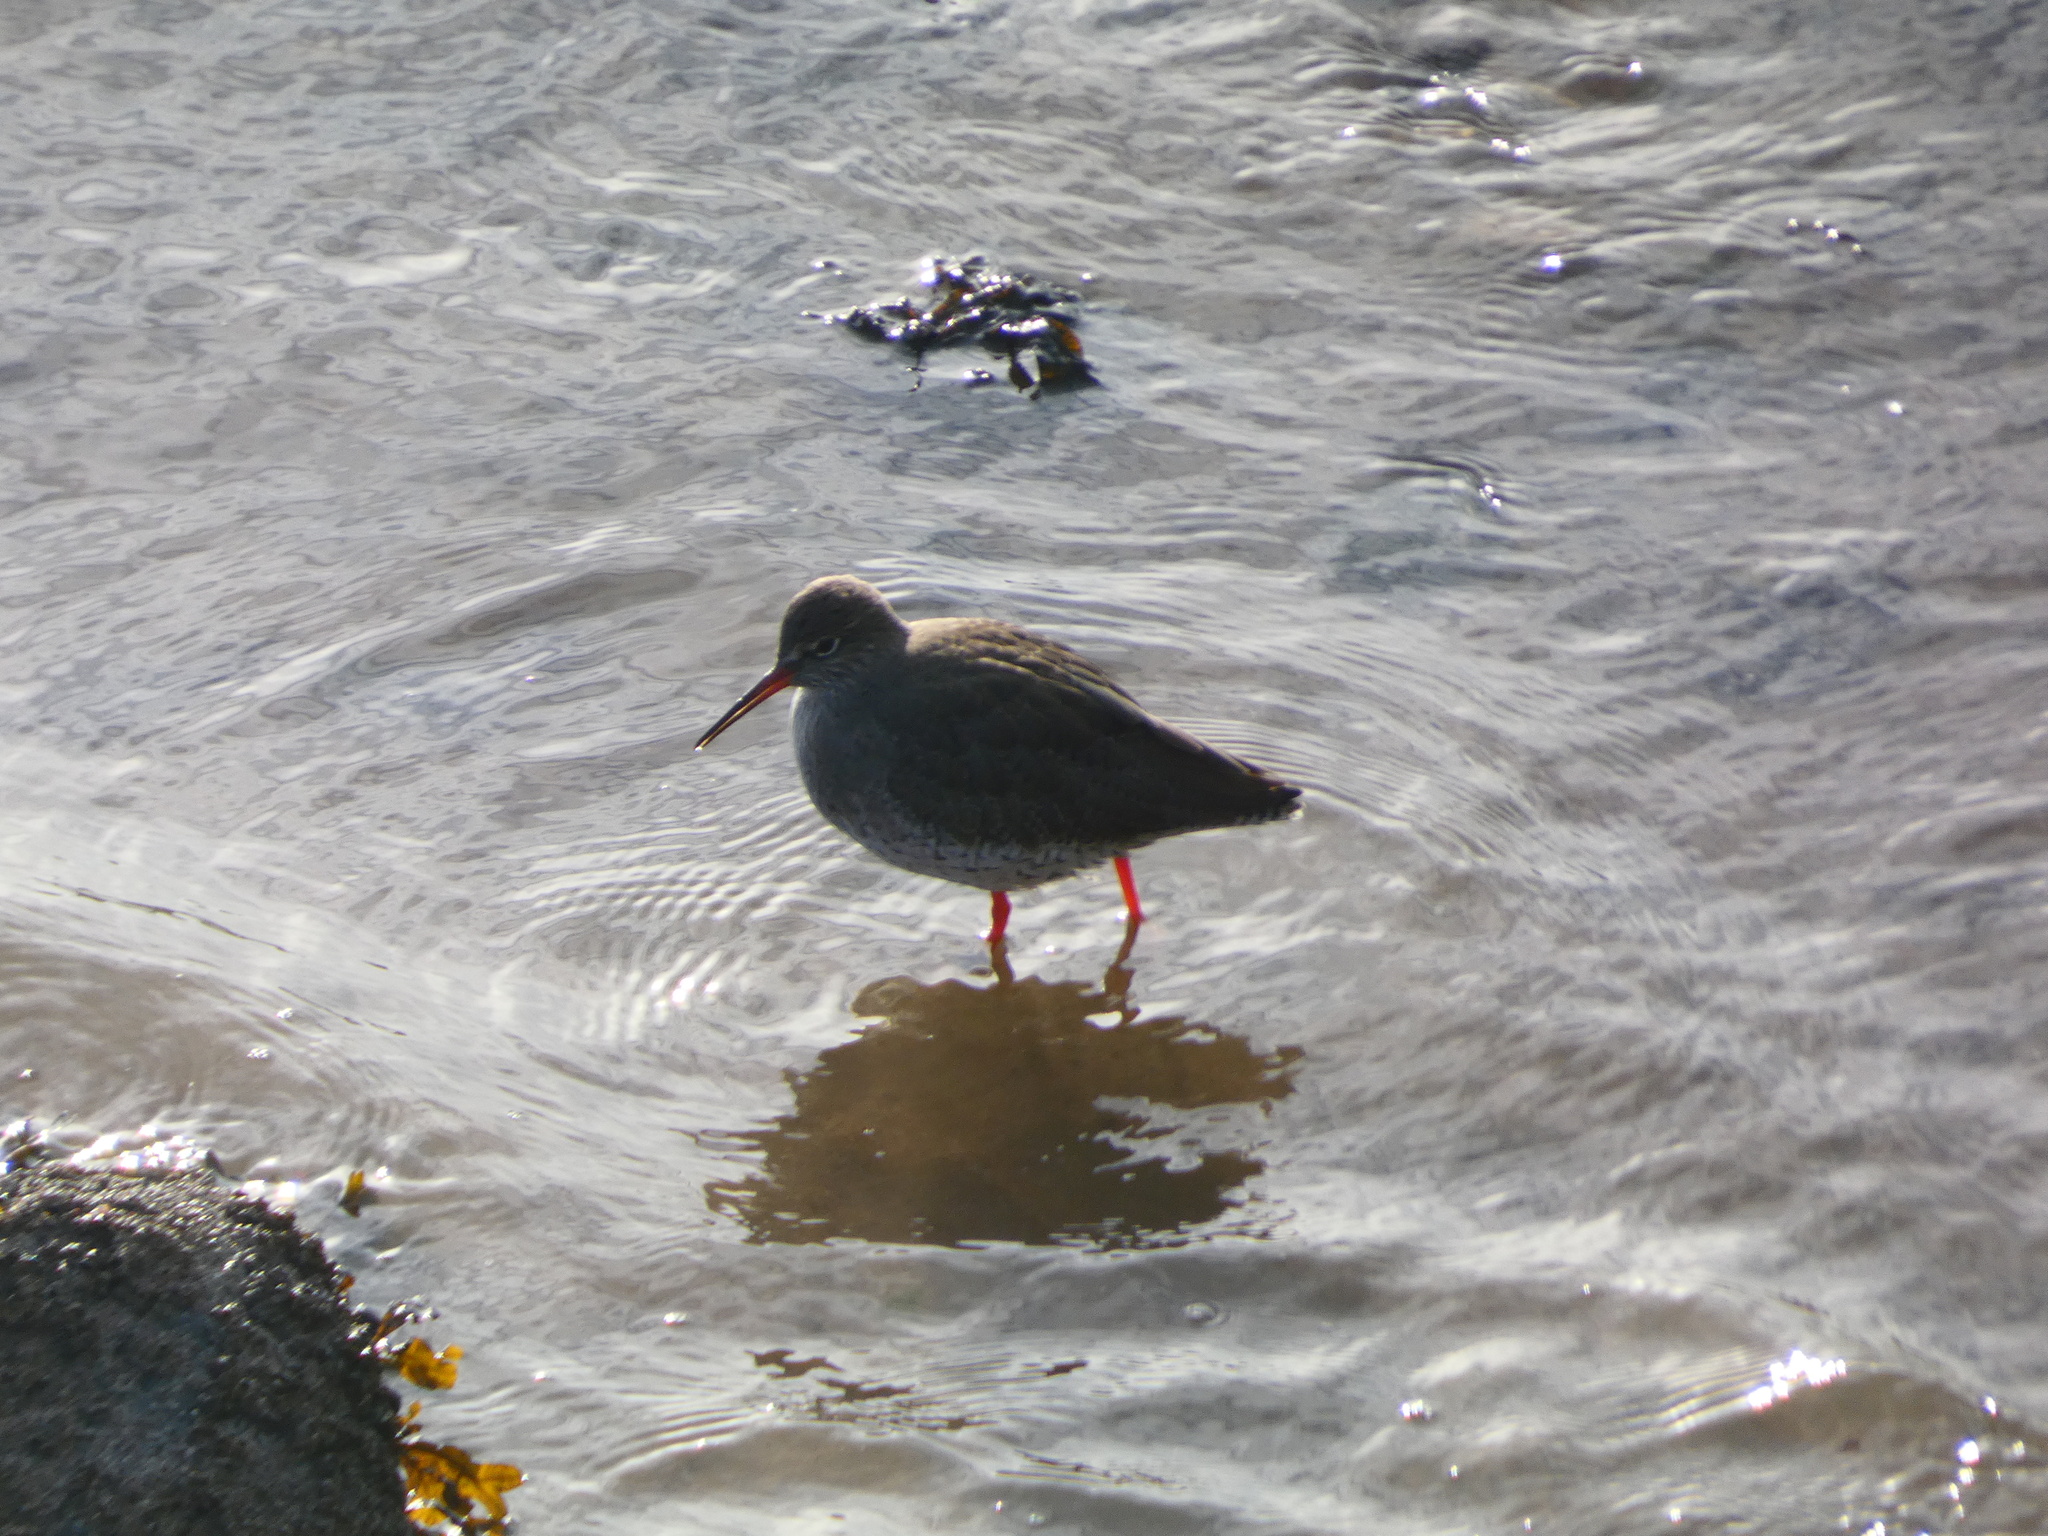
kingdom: Animalia
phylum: Chordata
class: Aves
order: Charadriiformes
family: Scolopacidae
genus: Tringa
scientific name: Tringa totanus
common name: Common redshank
